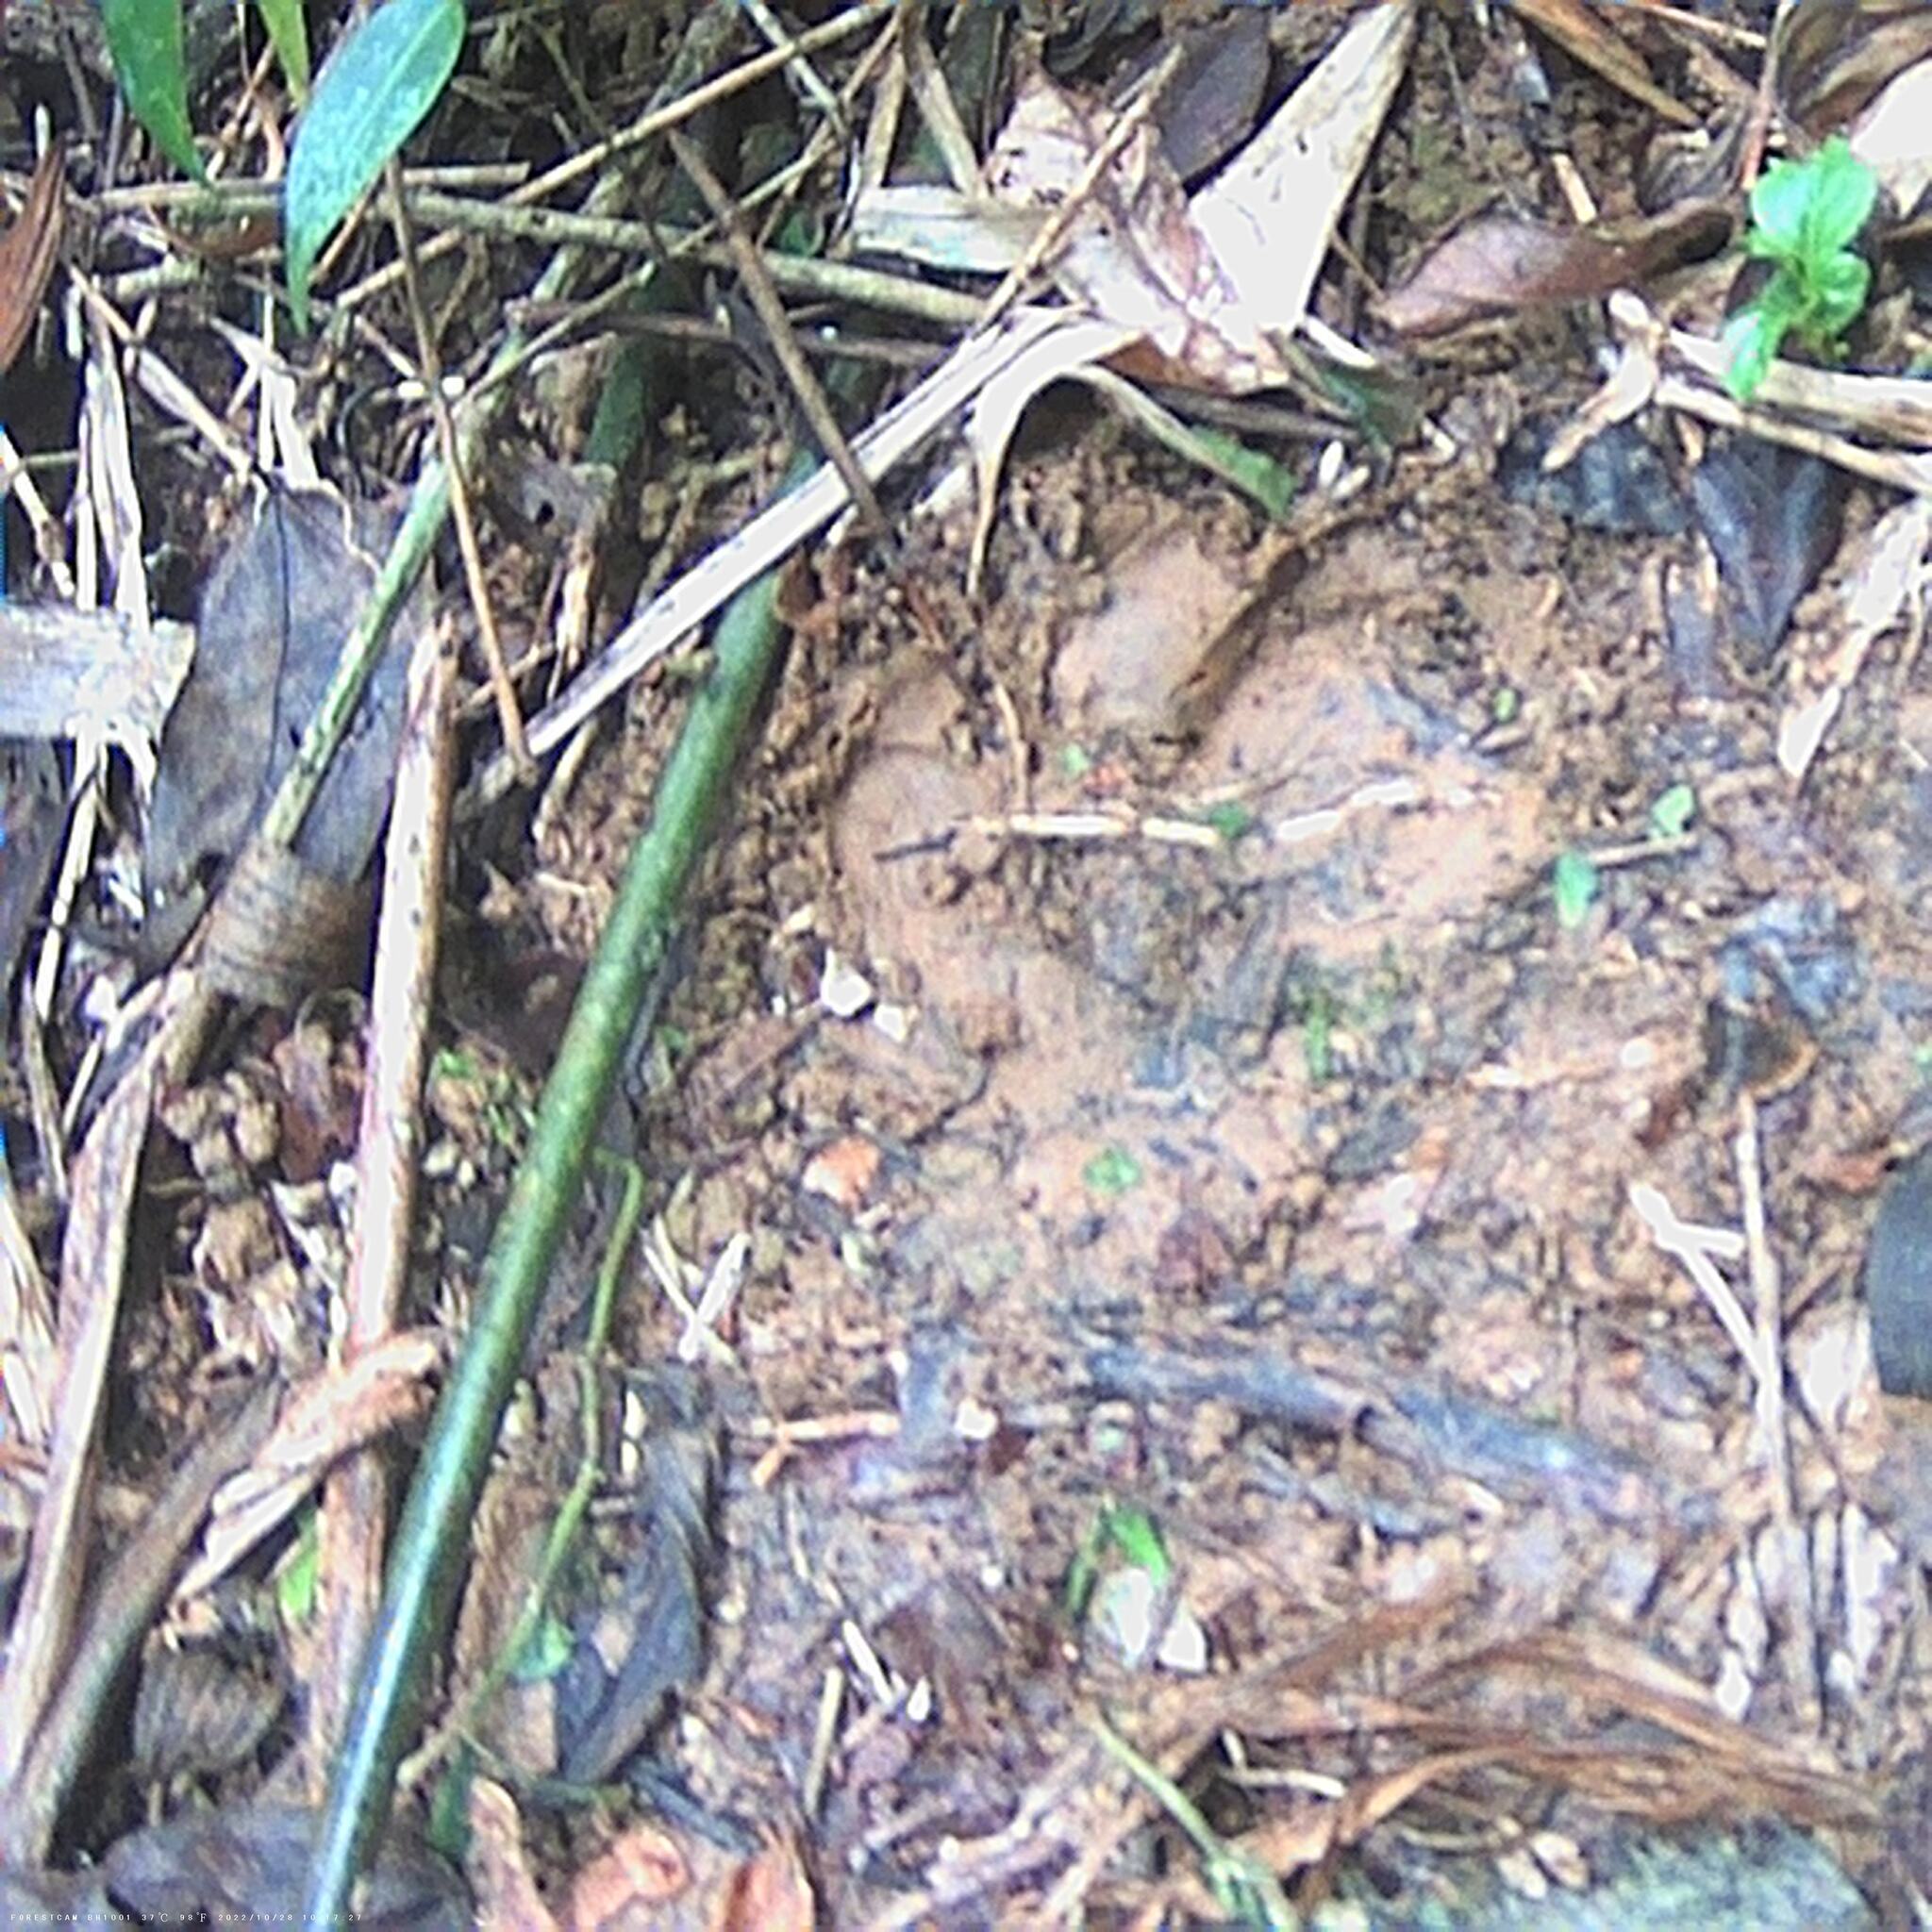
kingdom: Animalia
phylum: Chordata
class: Mammalia
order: Perissodactyla
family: Tapiridae
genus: Tapirus
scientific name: Tapirus terrestris
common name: Brazilian tapir
